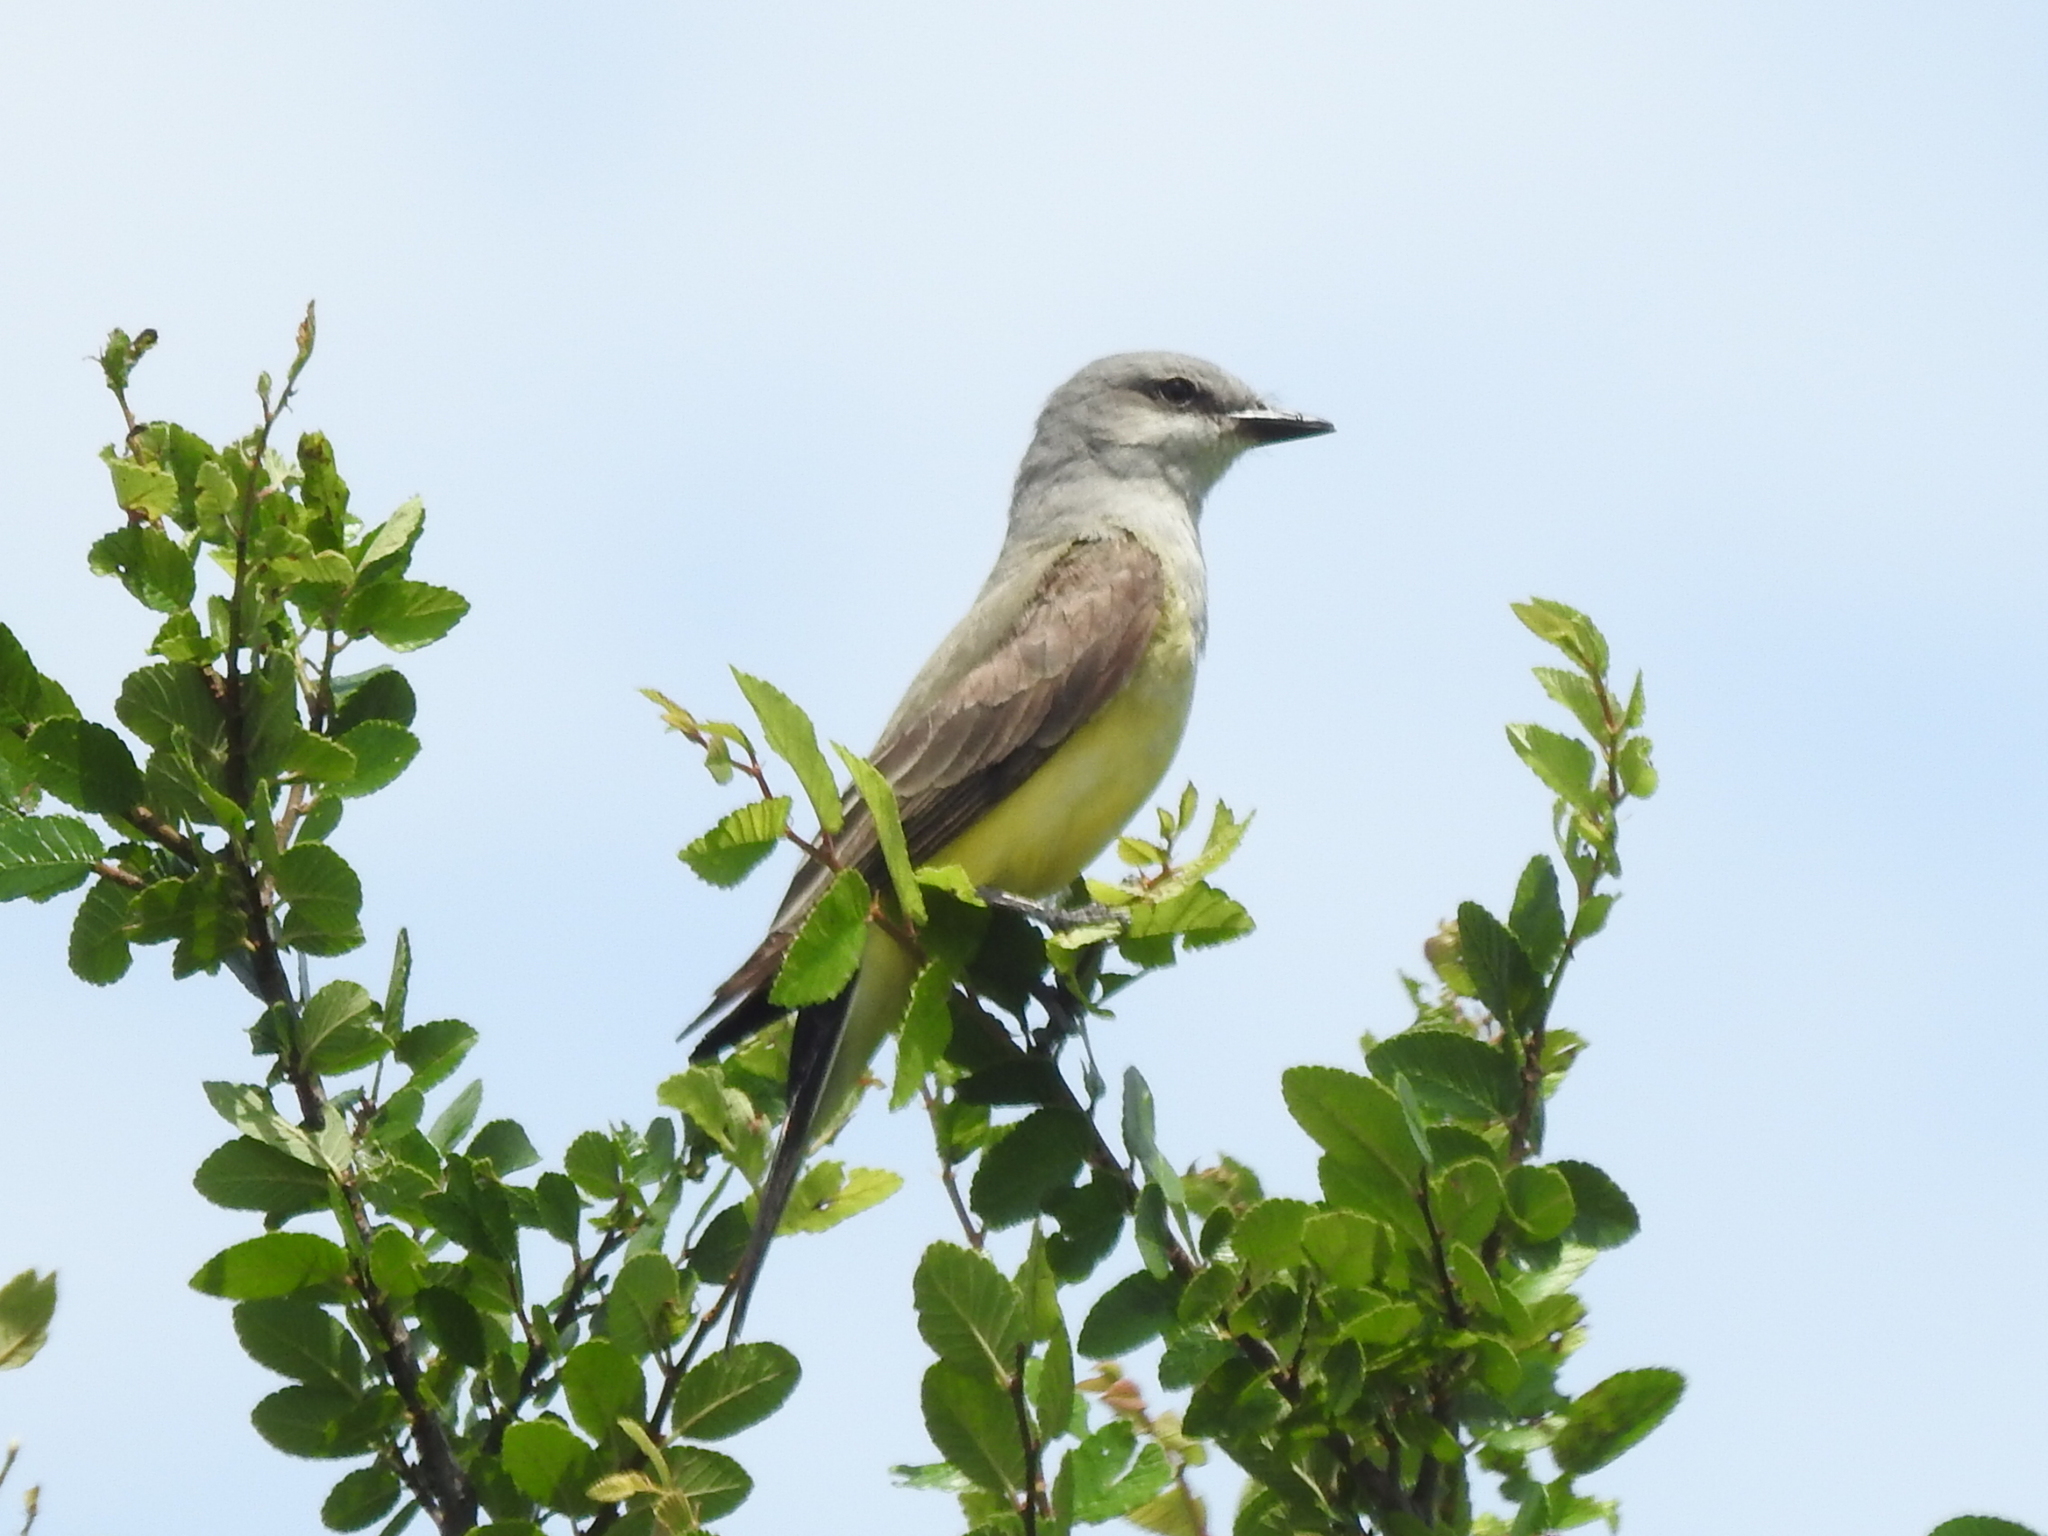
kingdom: Animalia
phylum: Chordata
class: Aves
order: Passeriformes
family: Tyrannidae
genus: Tyrannus
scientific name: Tyrannus verticalis
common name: Western kingbird
